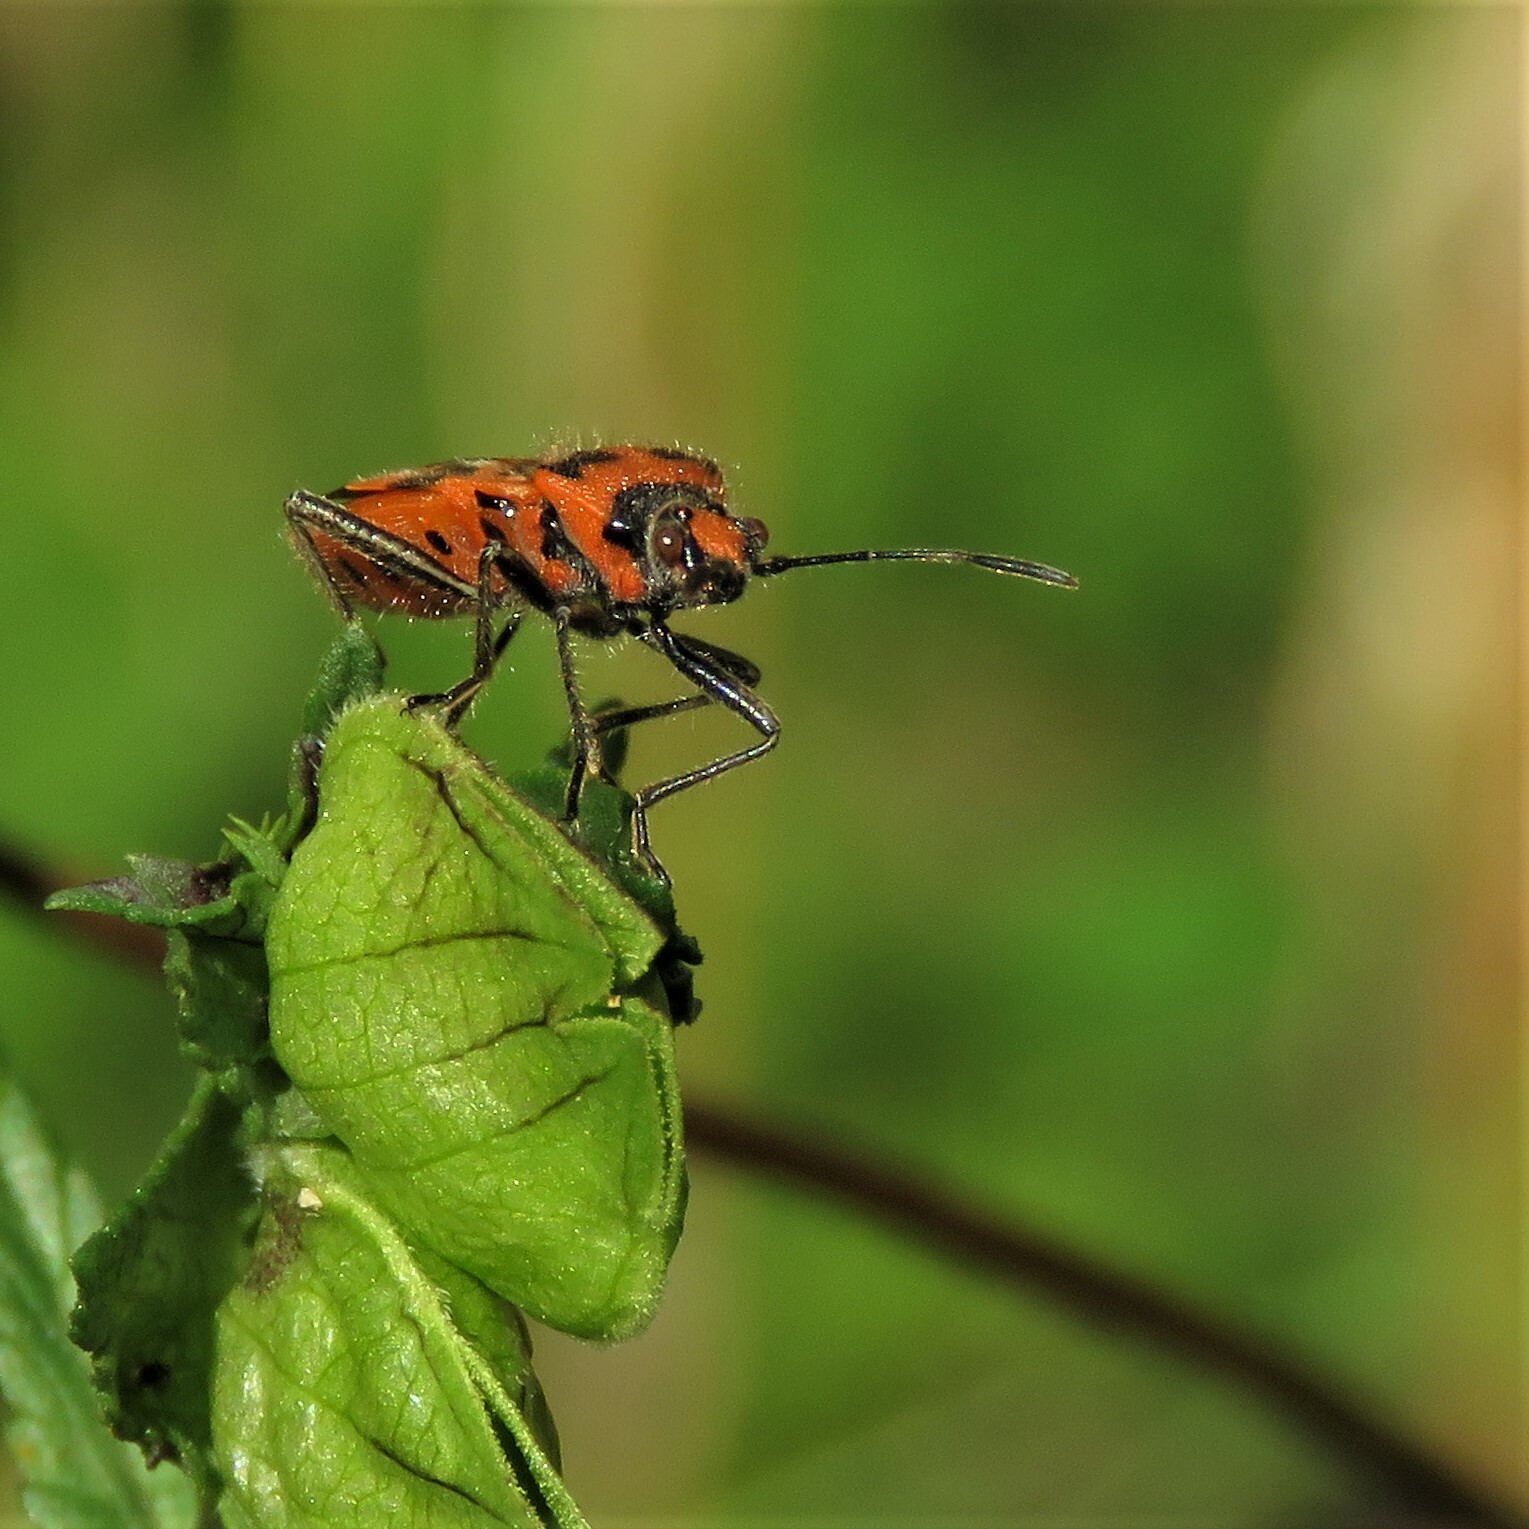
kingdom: Animalia
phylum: Arthropoda
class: Insecta
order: Hemiptera
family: Rhopalidae
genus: Corizus
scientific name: Corizus hyoscyami
